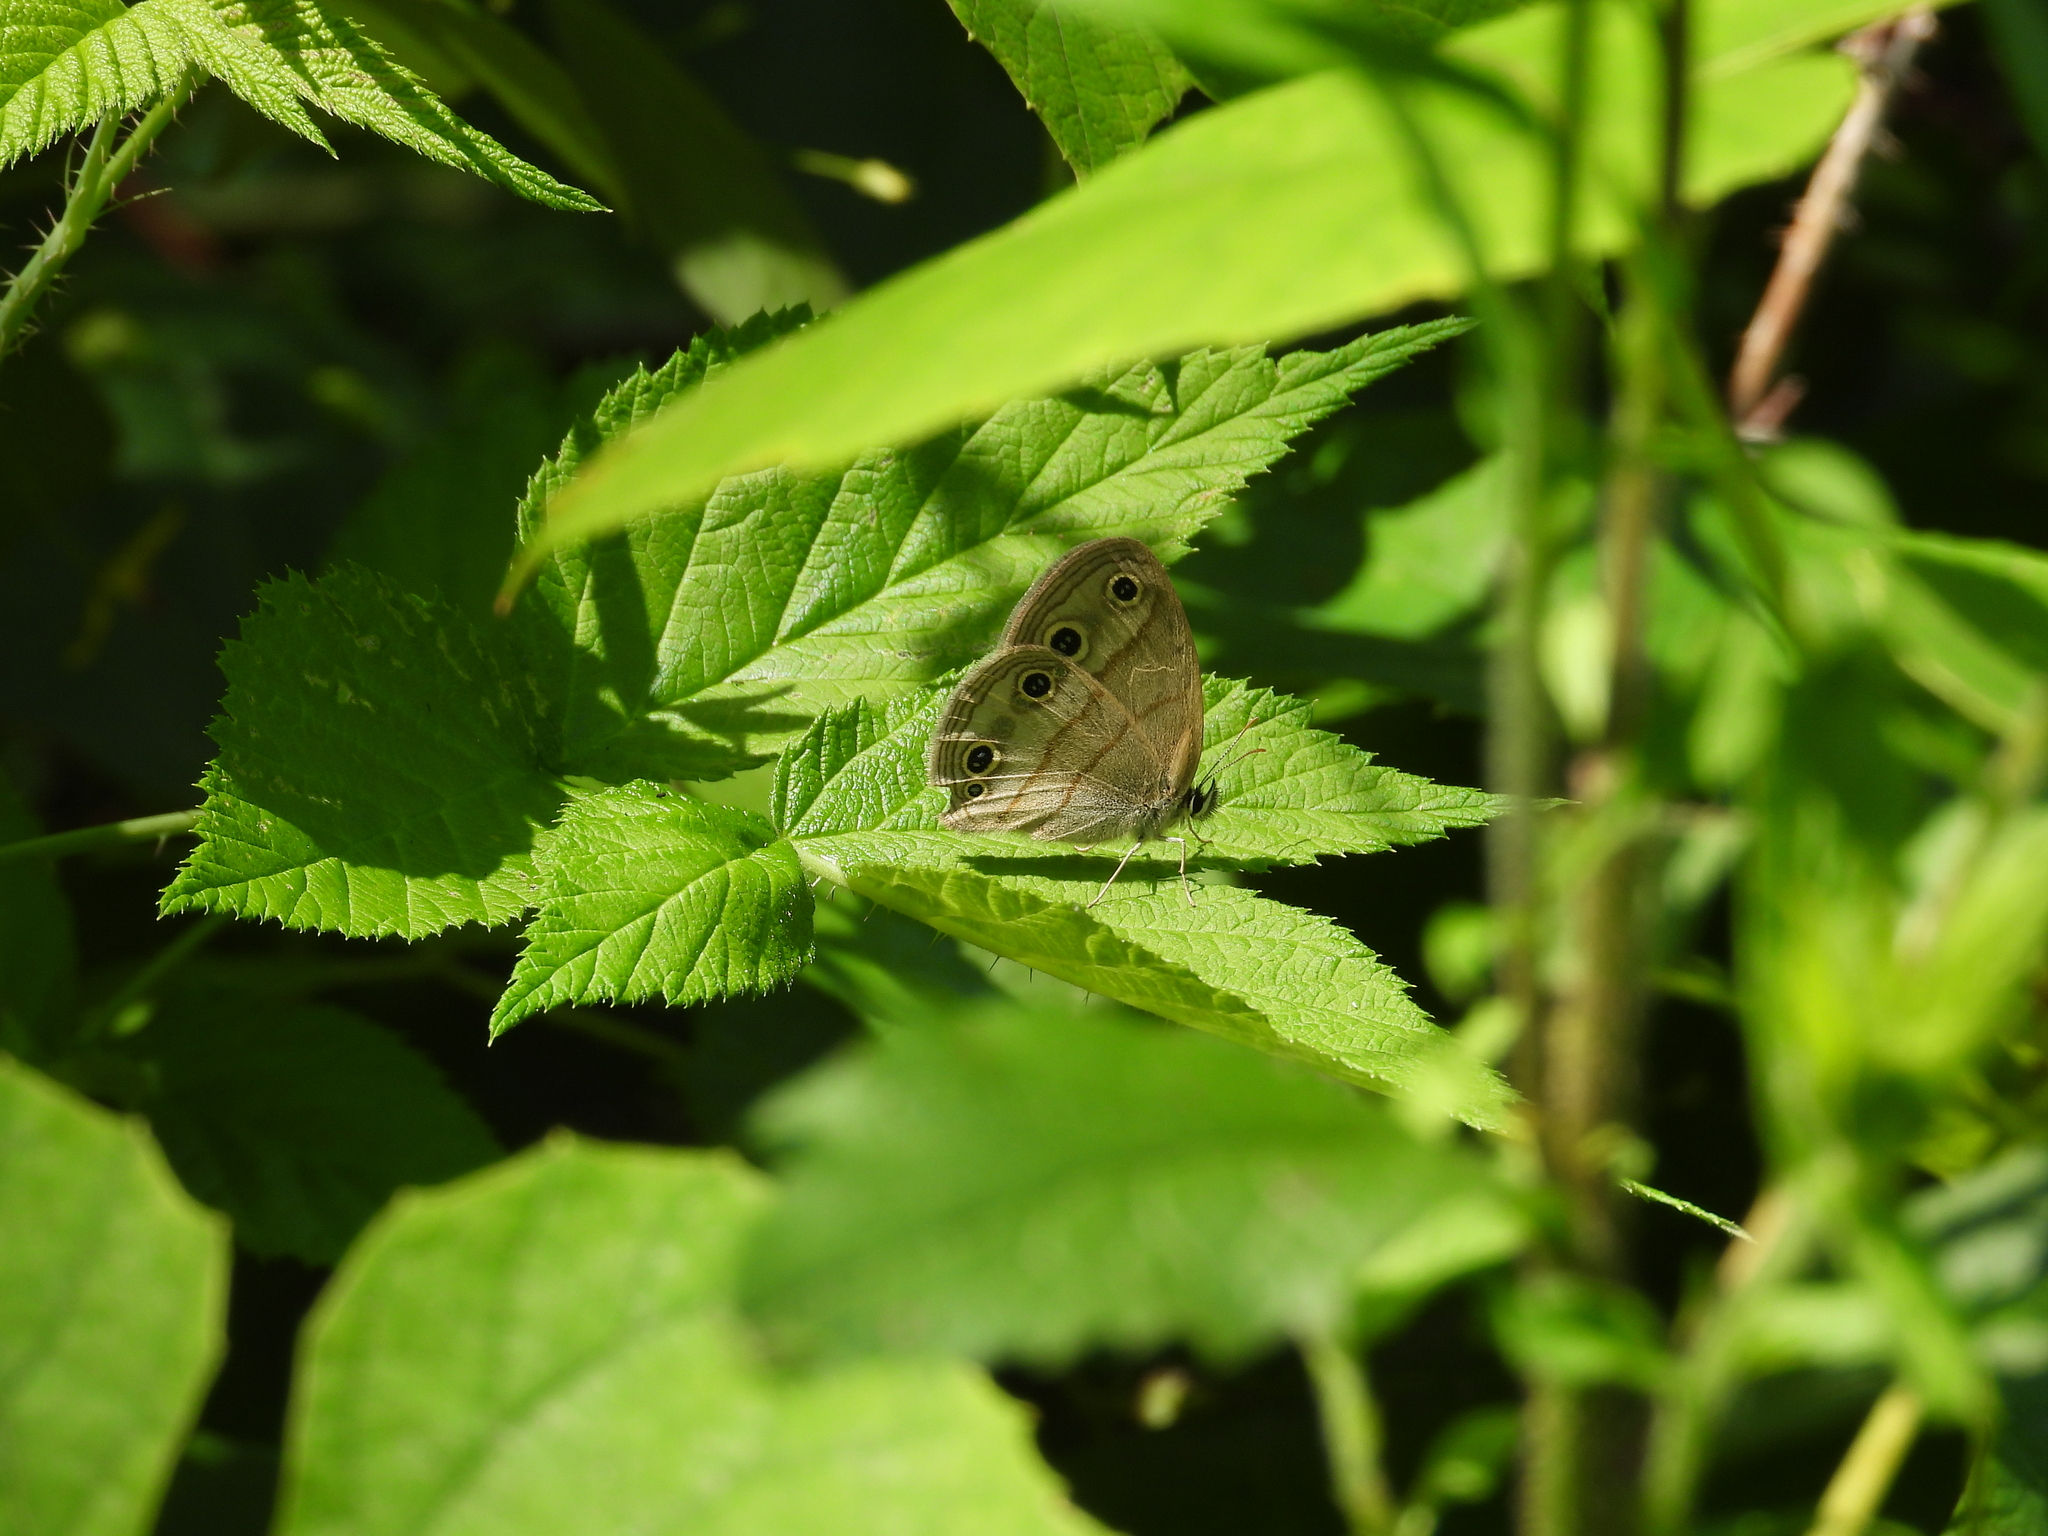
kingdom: Animalia
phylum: Arthropoda
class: Insecta
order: Lepidoptera
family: Nymphalidae
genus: Euptychia
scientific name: Euptychia cymela
